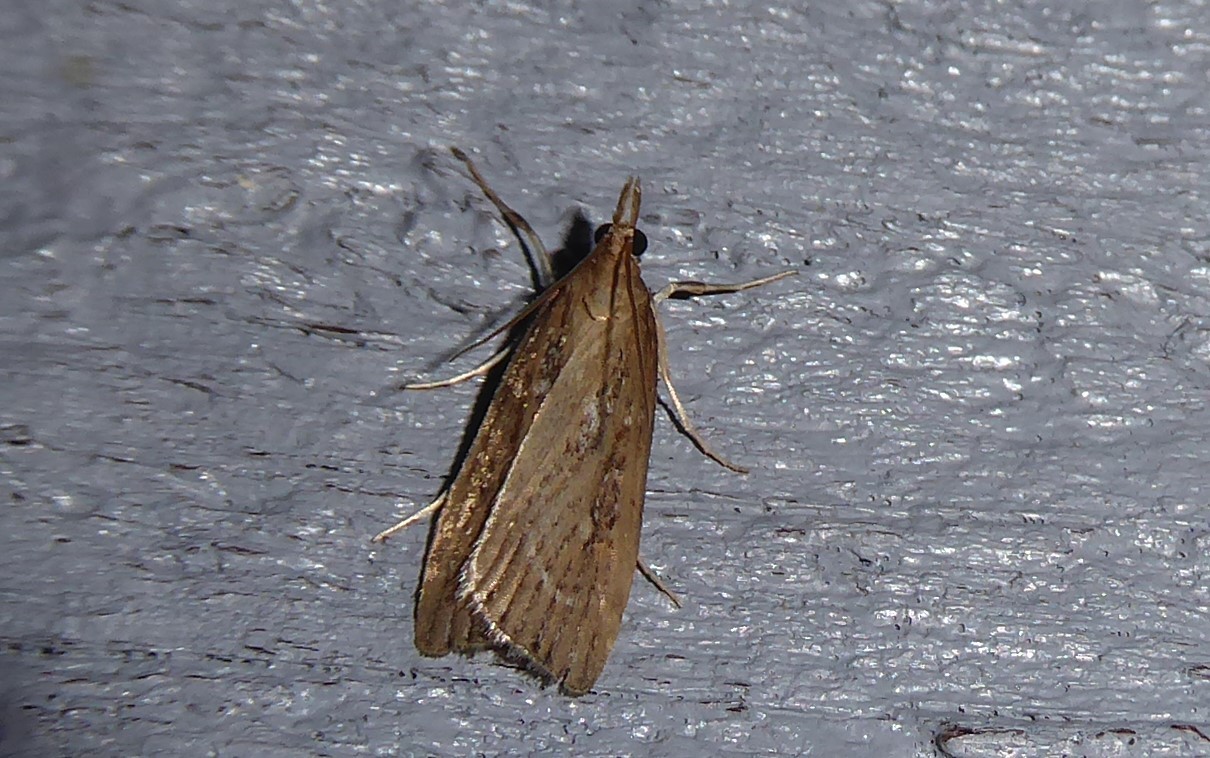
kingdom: Animalia
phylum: Arthropoda
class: Insecta
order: Lepidoptera
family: Crambidae
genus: Eudonia
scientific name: Eudonia octophora
